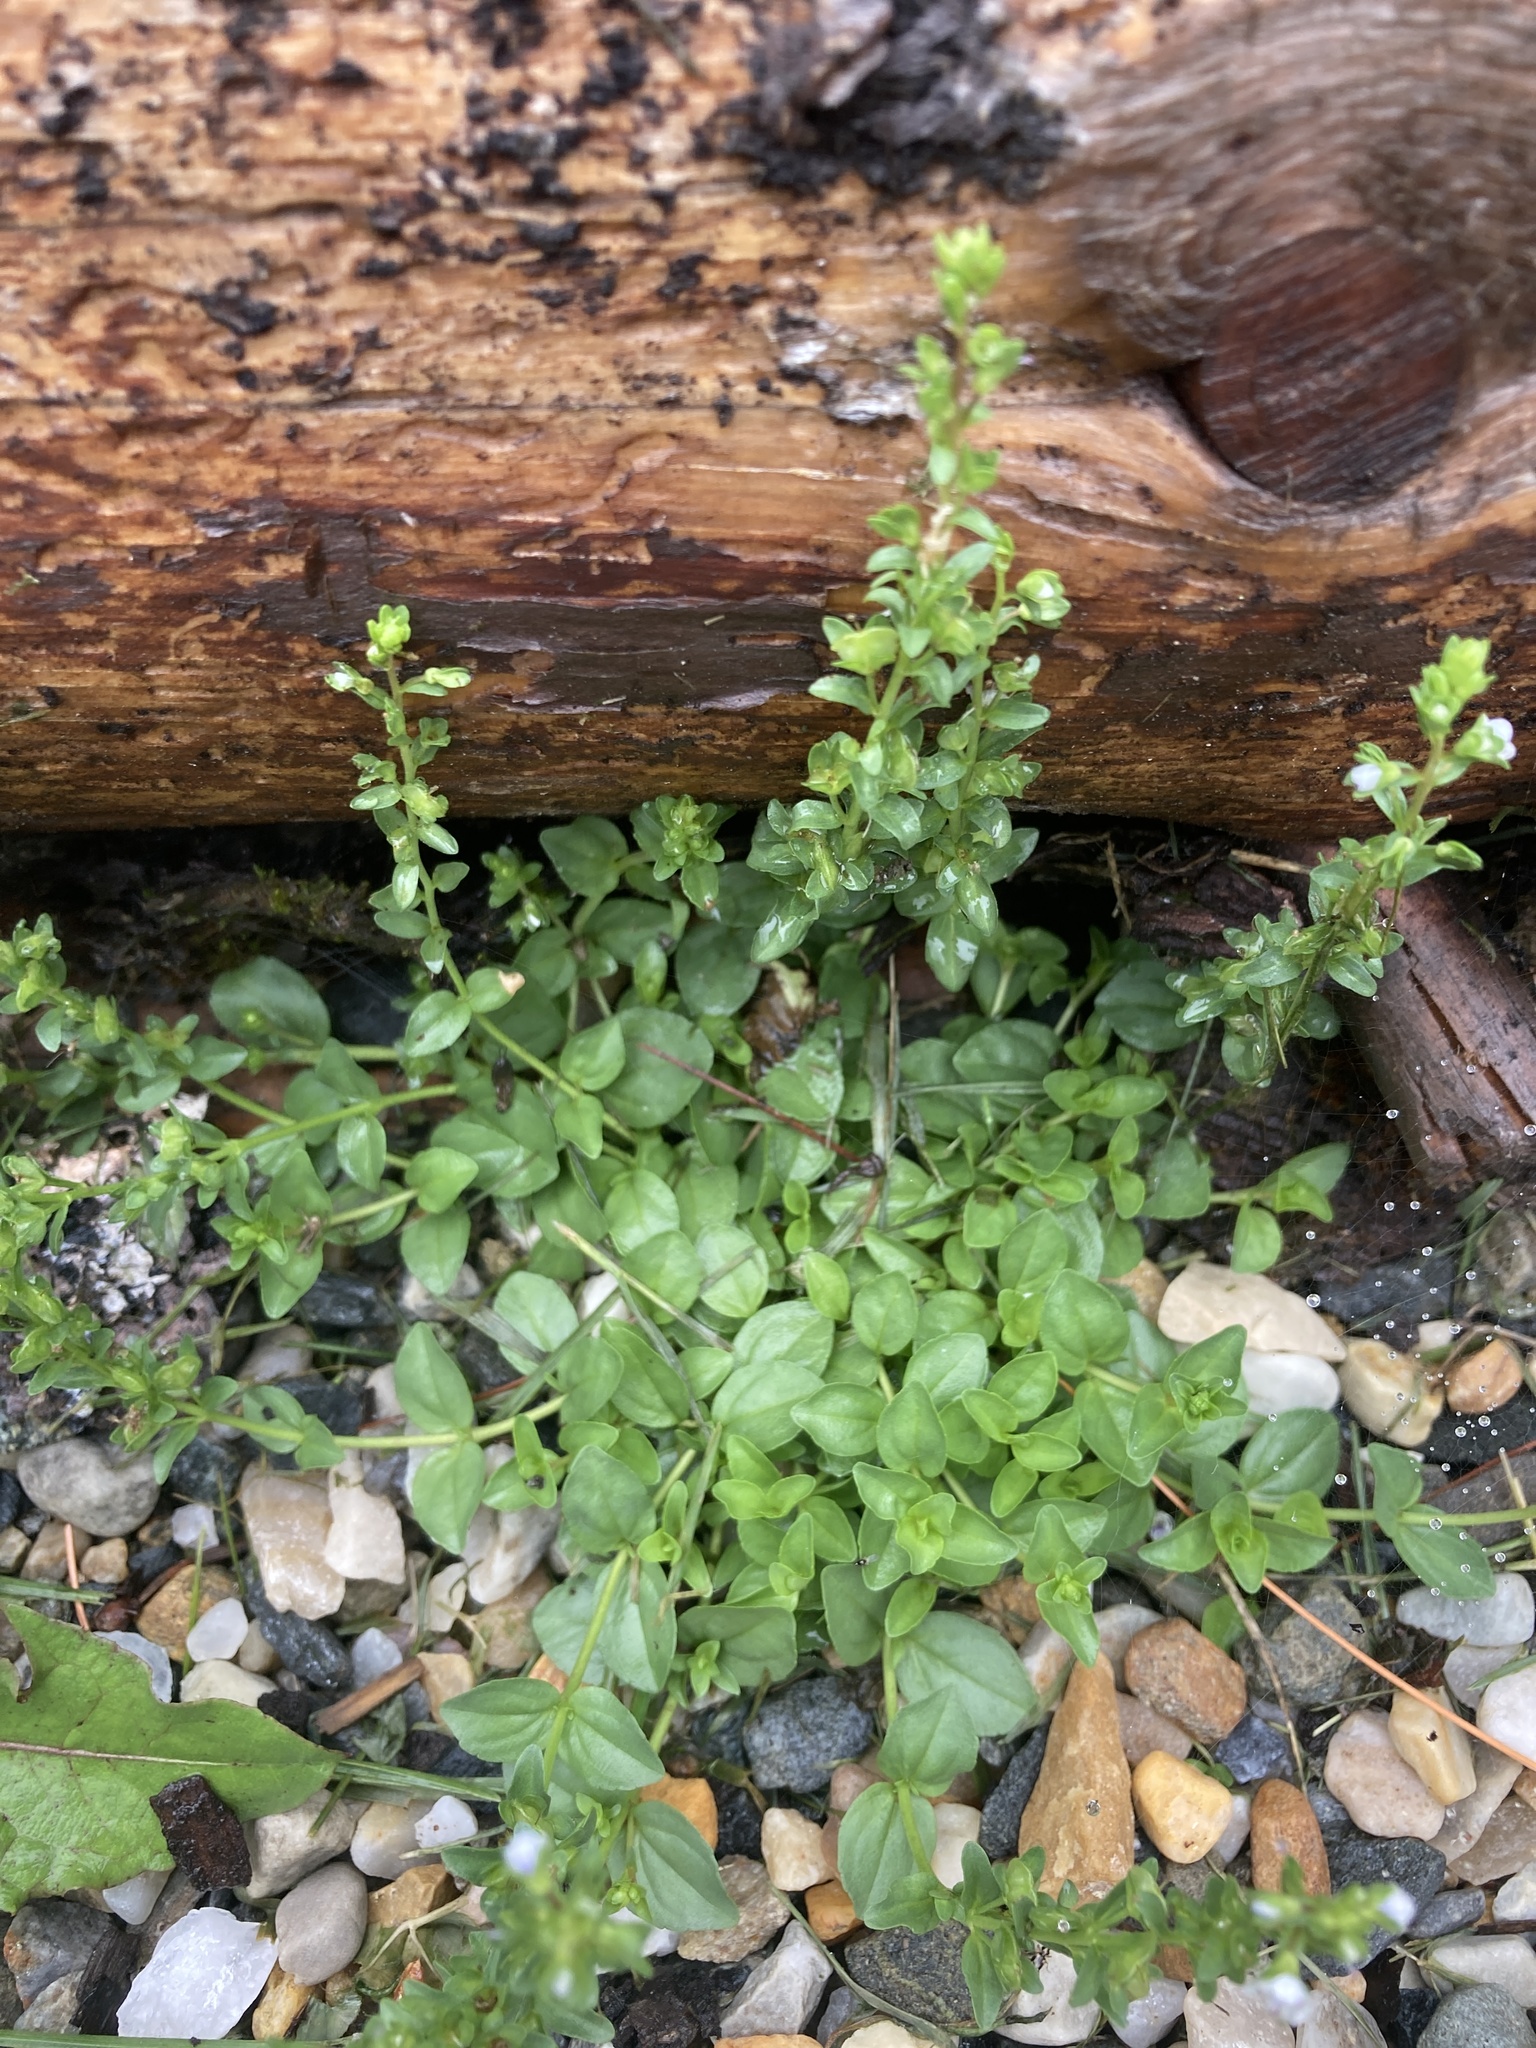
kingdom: Plantae
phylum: Tracheophyta
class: Magnoliopsida
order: Lamiales
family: Plantaginaceae
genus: Veronica
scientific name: Veronica serpyllifolia
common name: Thyme-leaved speedwell
